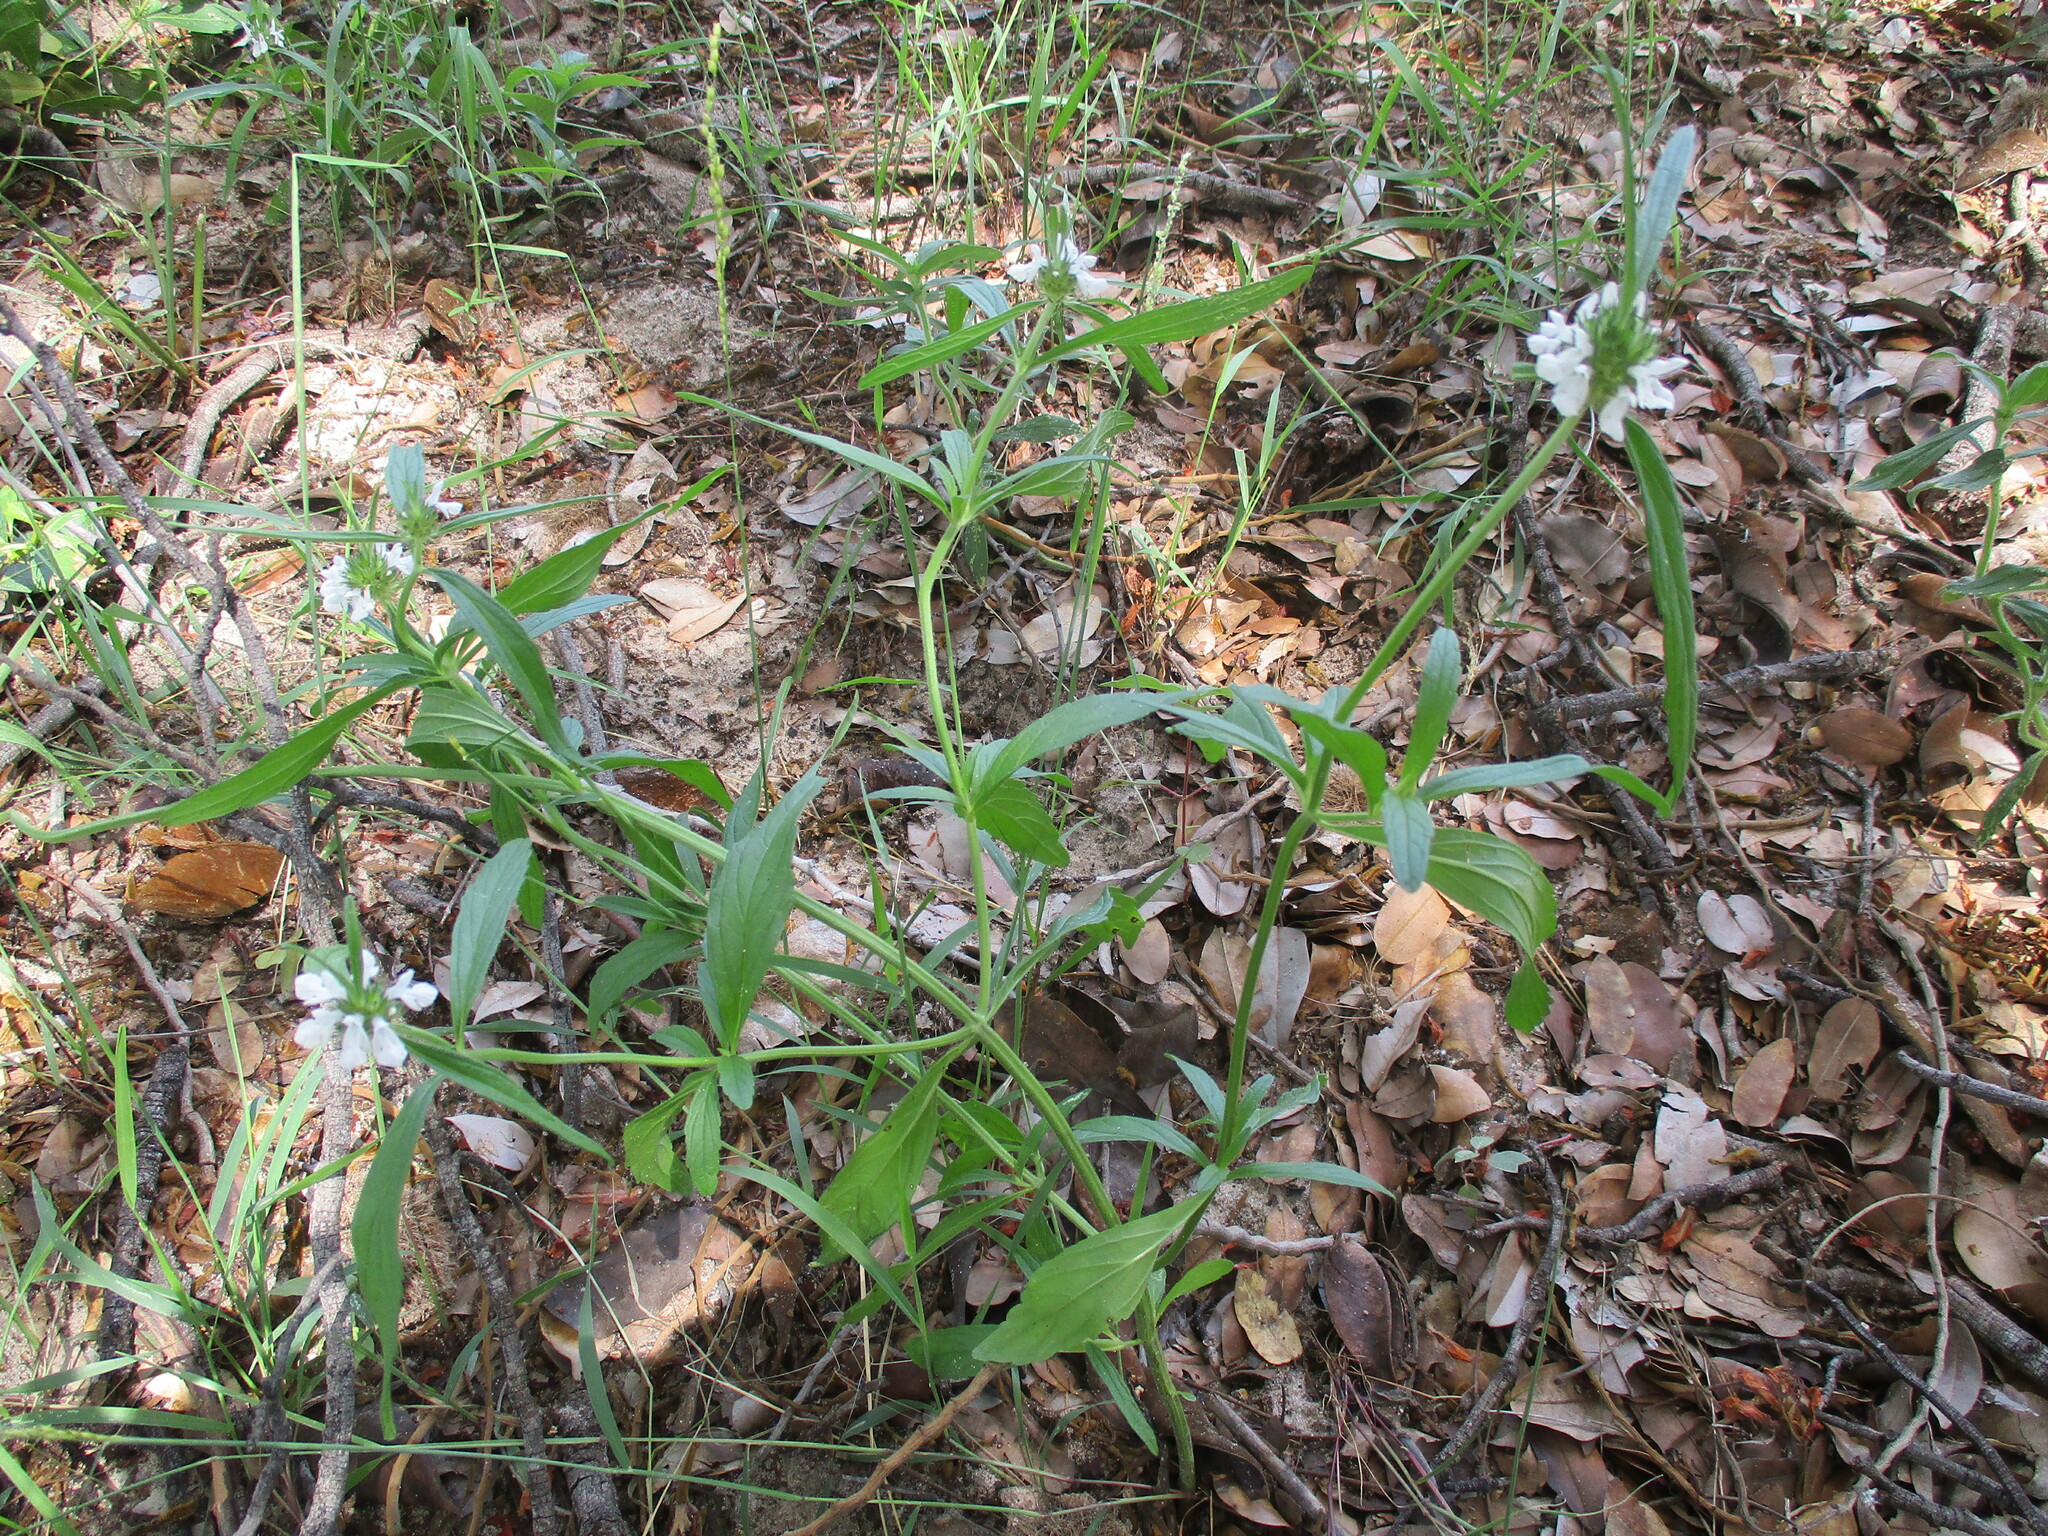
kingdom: Plantae
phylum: Tracheophyta
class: Magnoliopsida
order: Lamiales
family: Lamiaceae
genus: Acrotome
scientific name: Acrotome angustifolia
